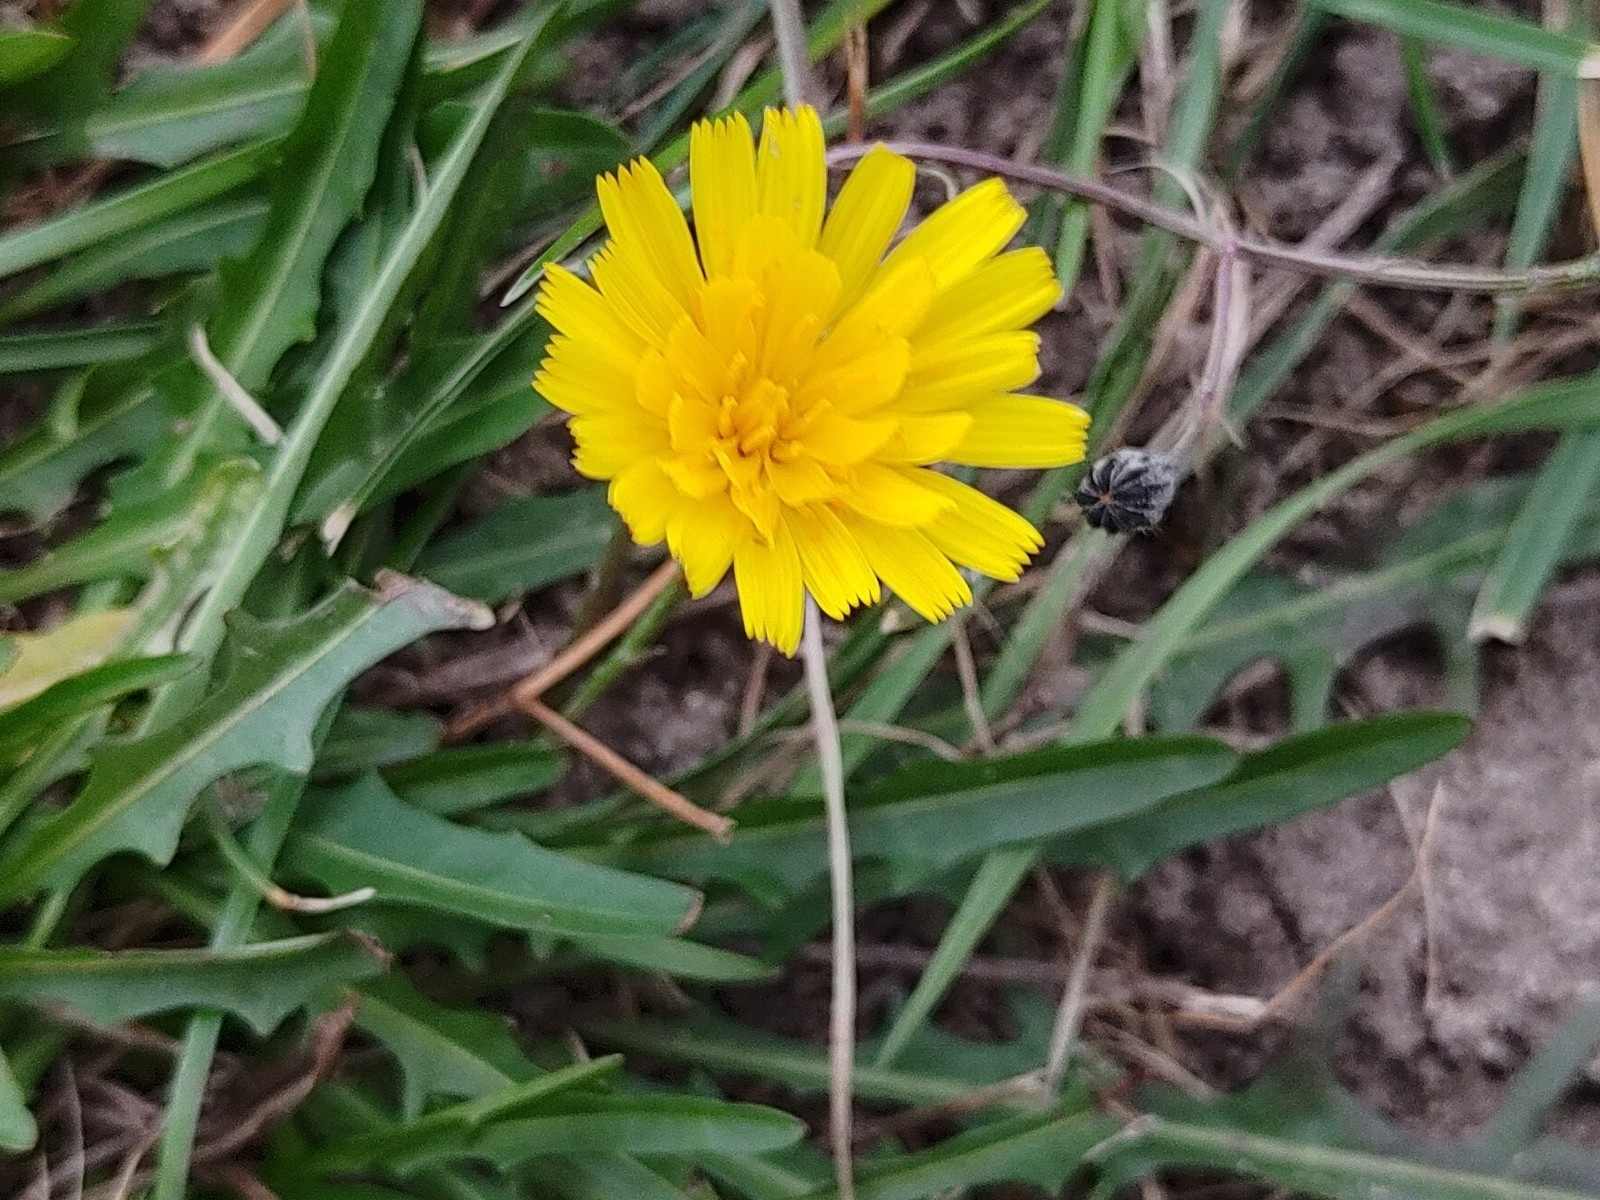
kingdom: Plantae
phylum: Tracheophyta
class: Magnoliopsida
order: Asterales
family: Asteraceae
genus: Scorzoneroides
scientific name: Scorzoneroides autumnalis
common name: Autumn hawkbit
